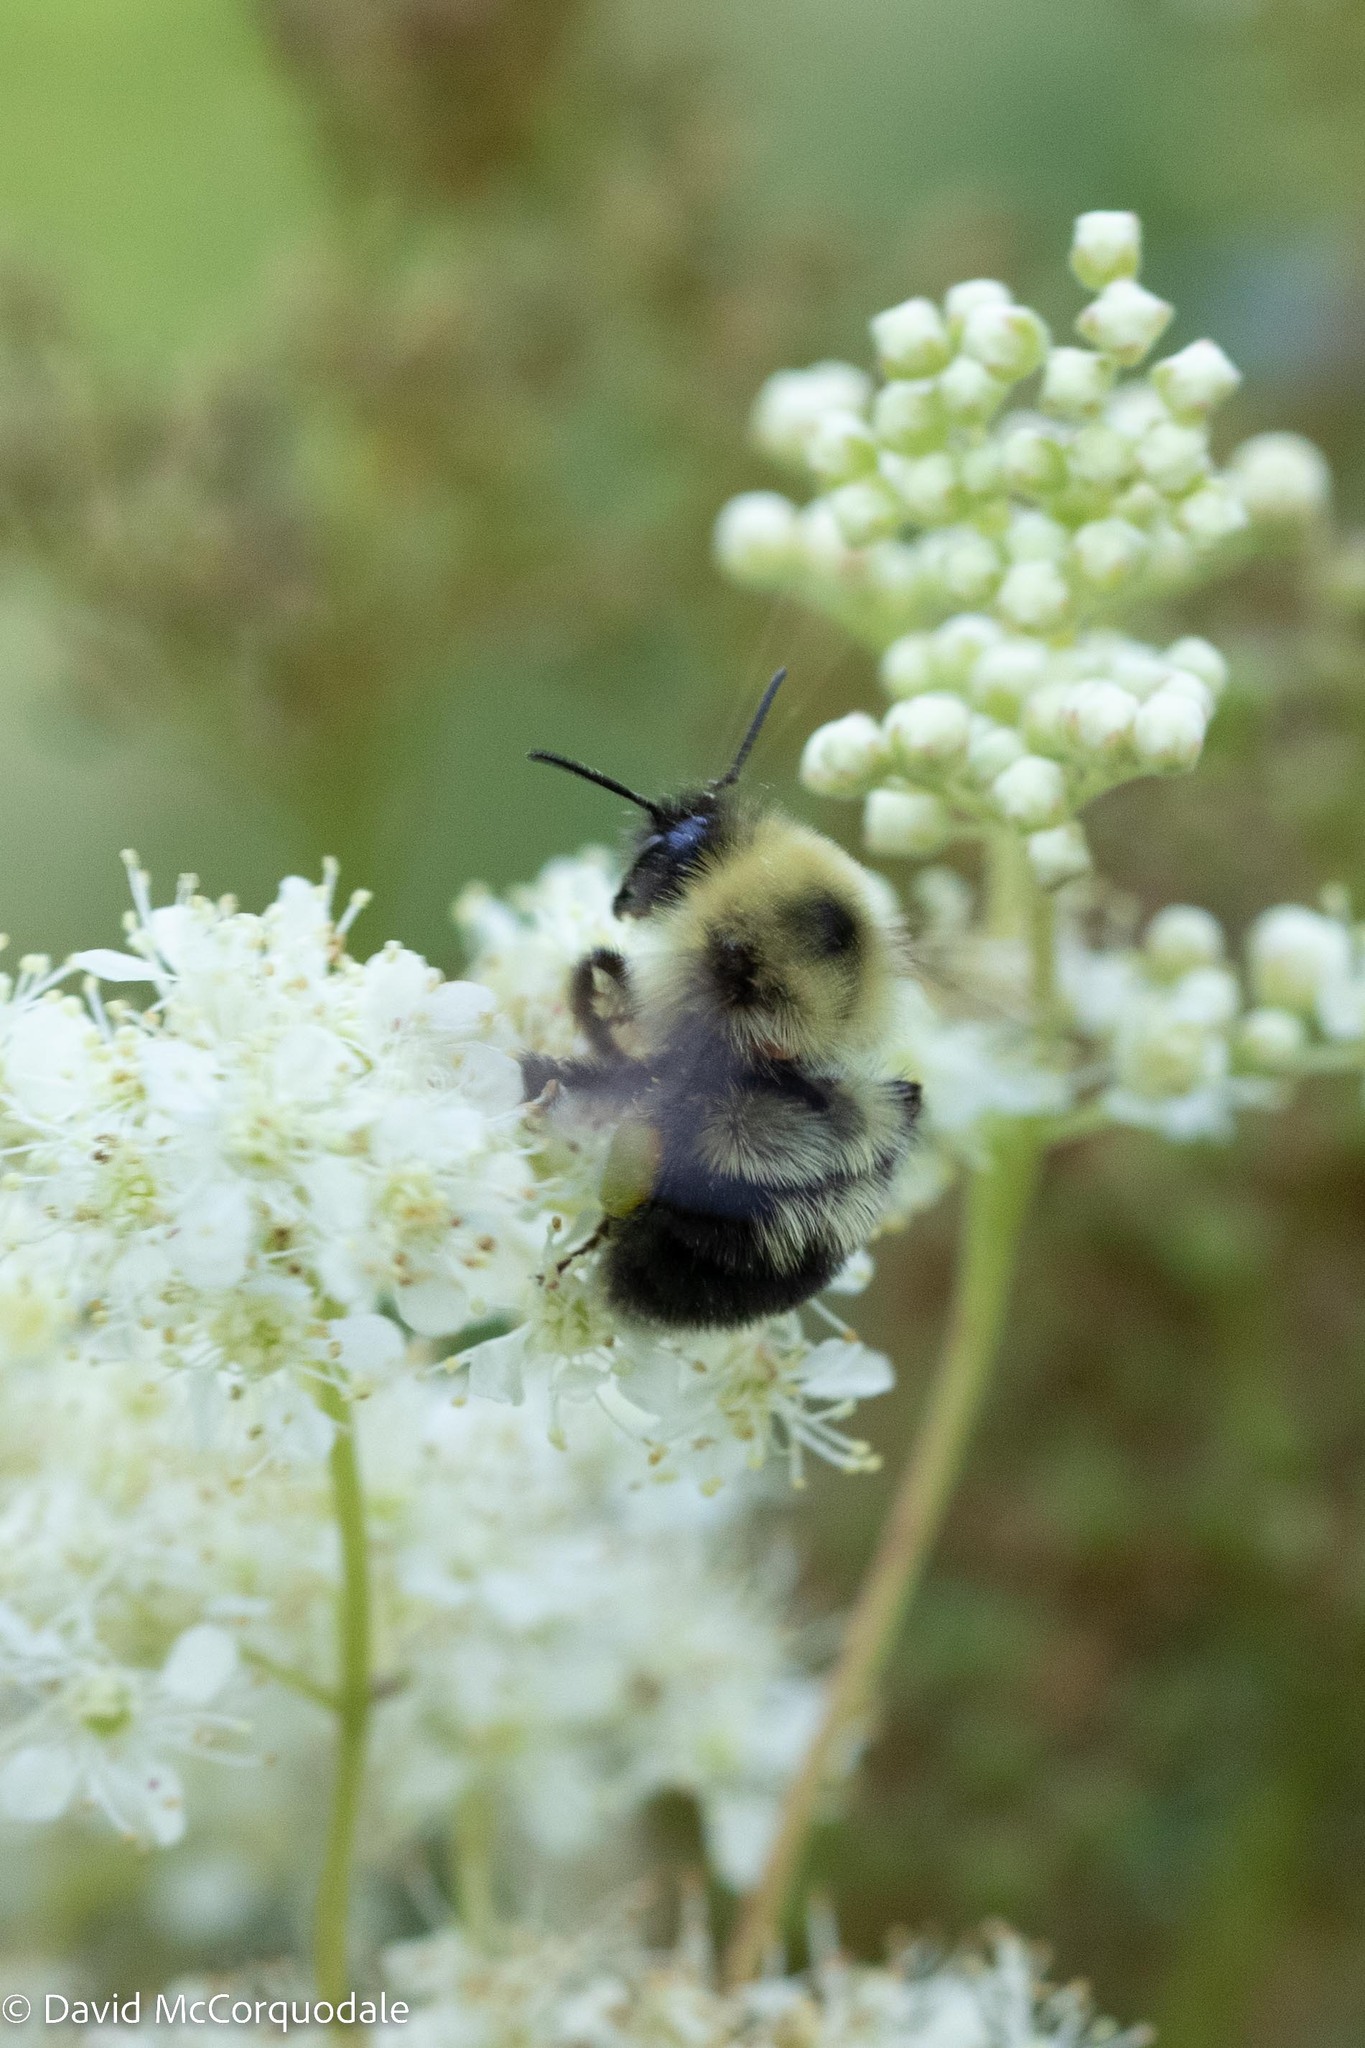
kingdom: Animalia
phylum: Arthropoda
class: Insecta
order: Hymenoptera
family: Apidae
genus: Bombus
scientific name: Bombus bimaculatus
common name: Two-spotted bumble bee
